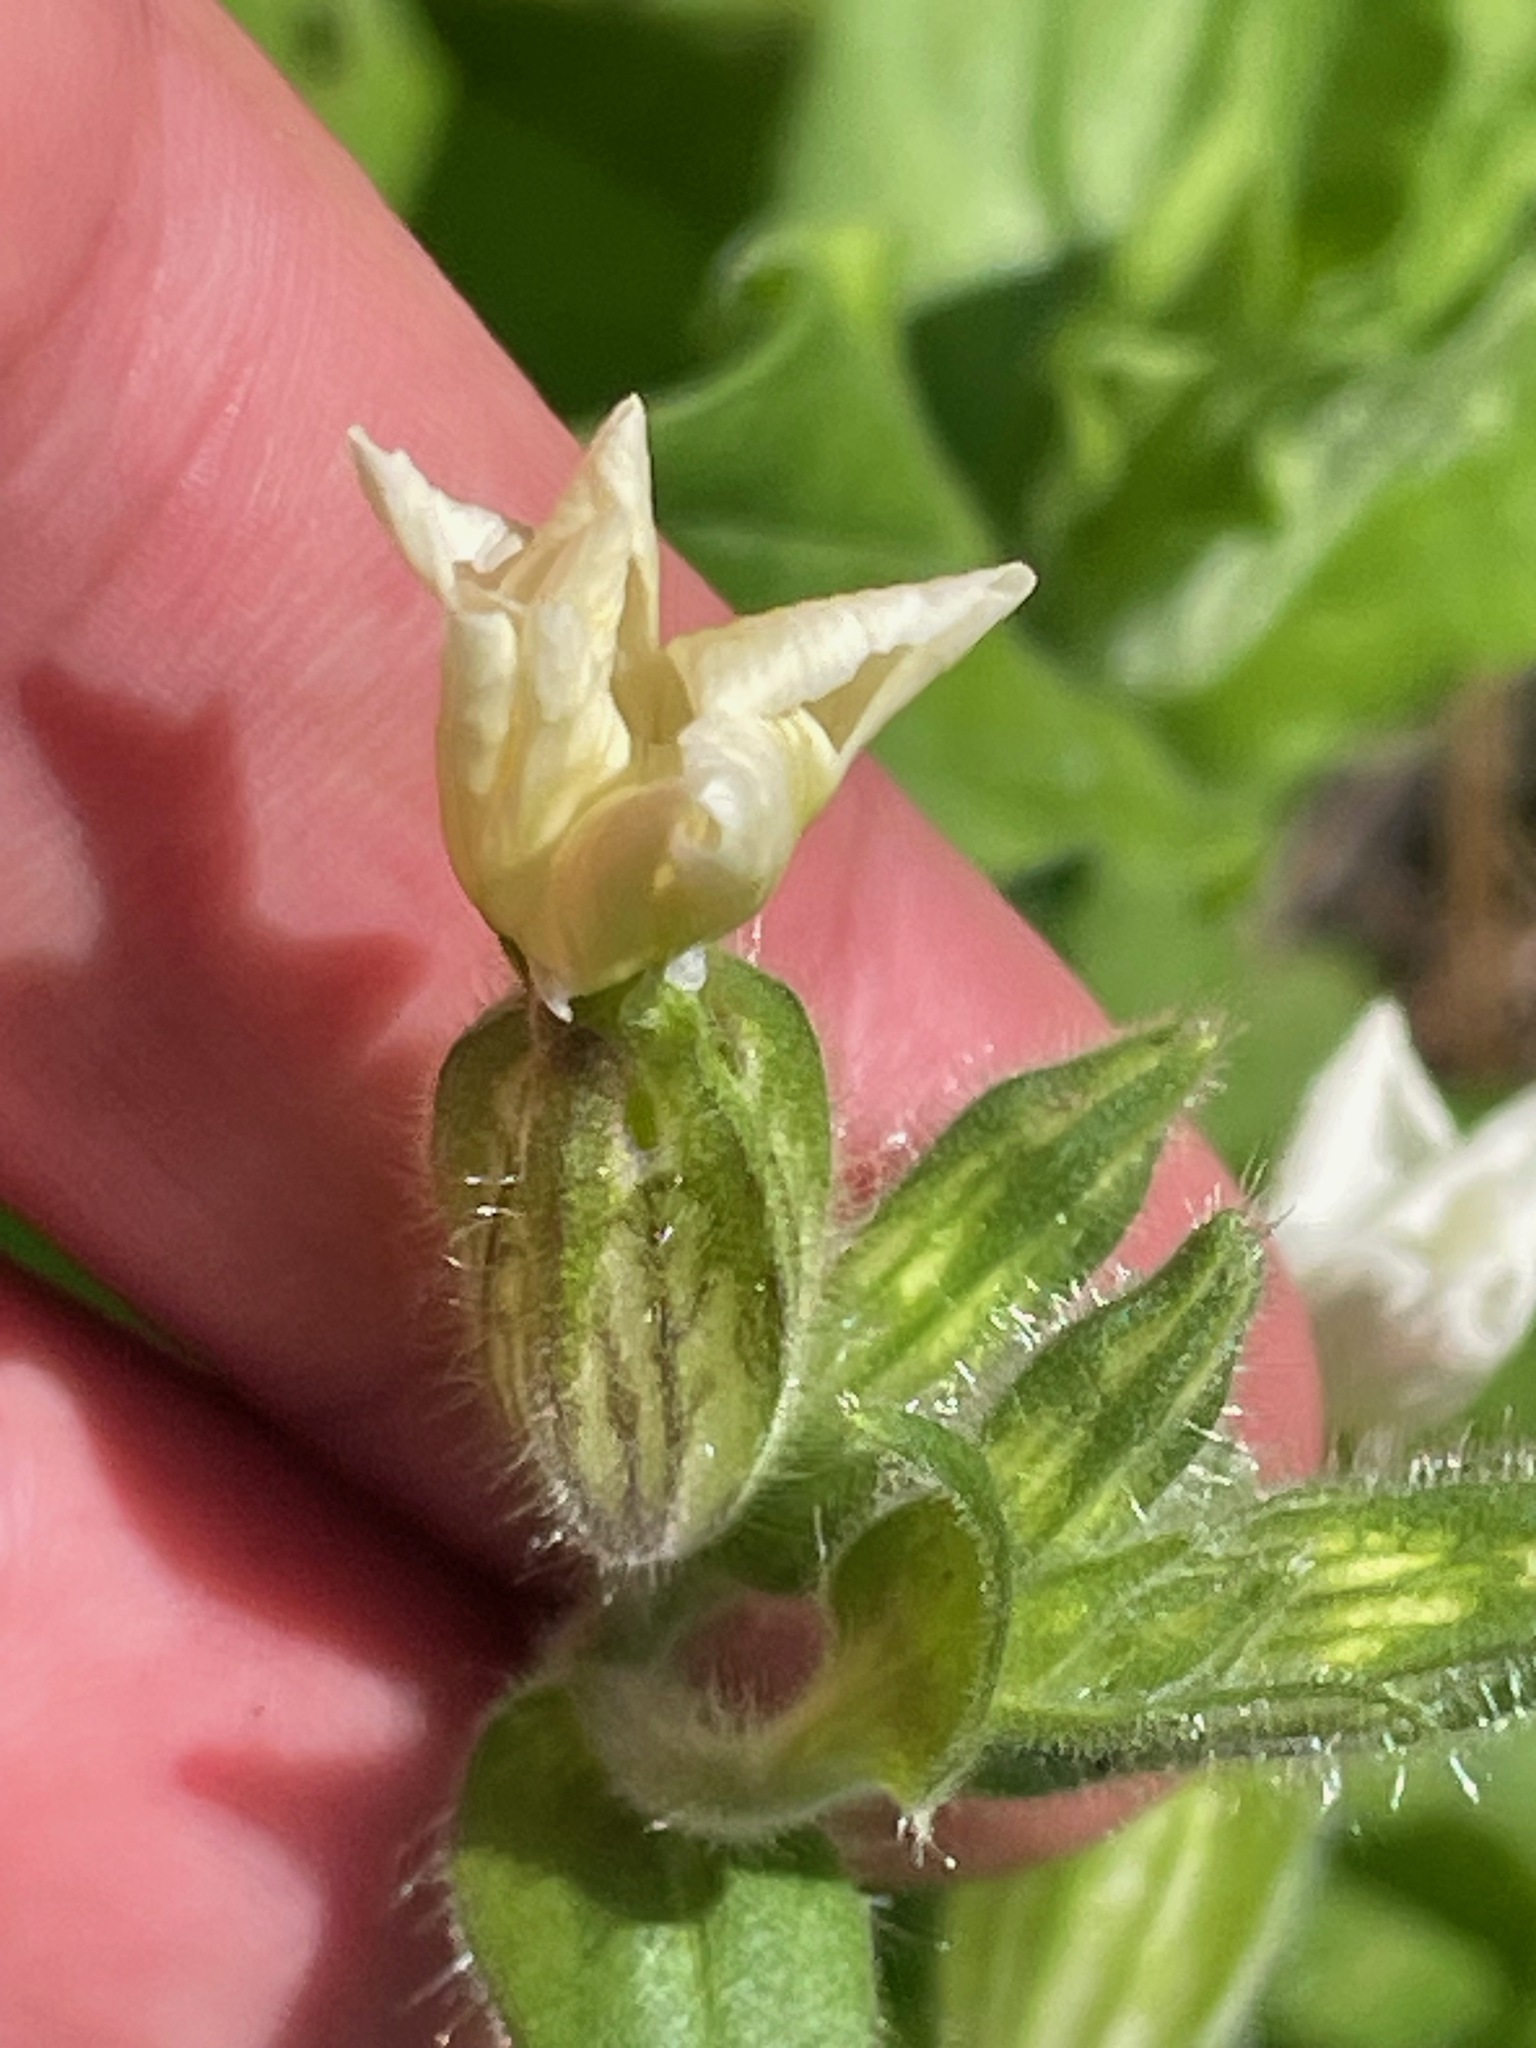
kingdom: Plantae
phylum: Tracheophyta
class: Magnoliopsida
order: Caryophyllales
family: Caryophyllaceae
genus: Silene
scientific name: Silene latifolia
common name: White campion
